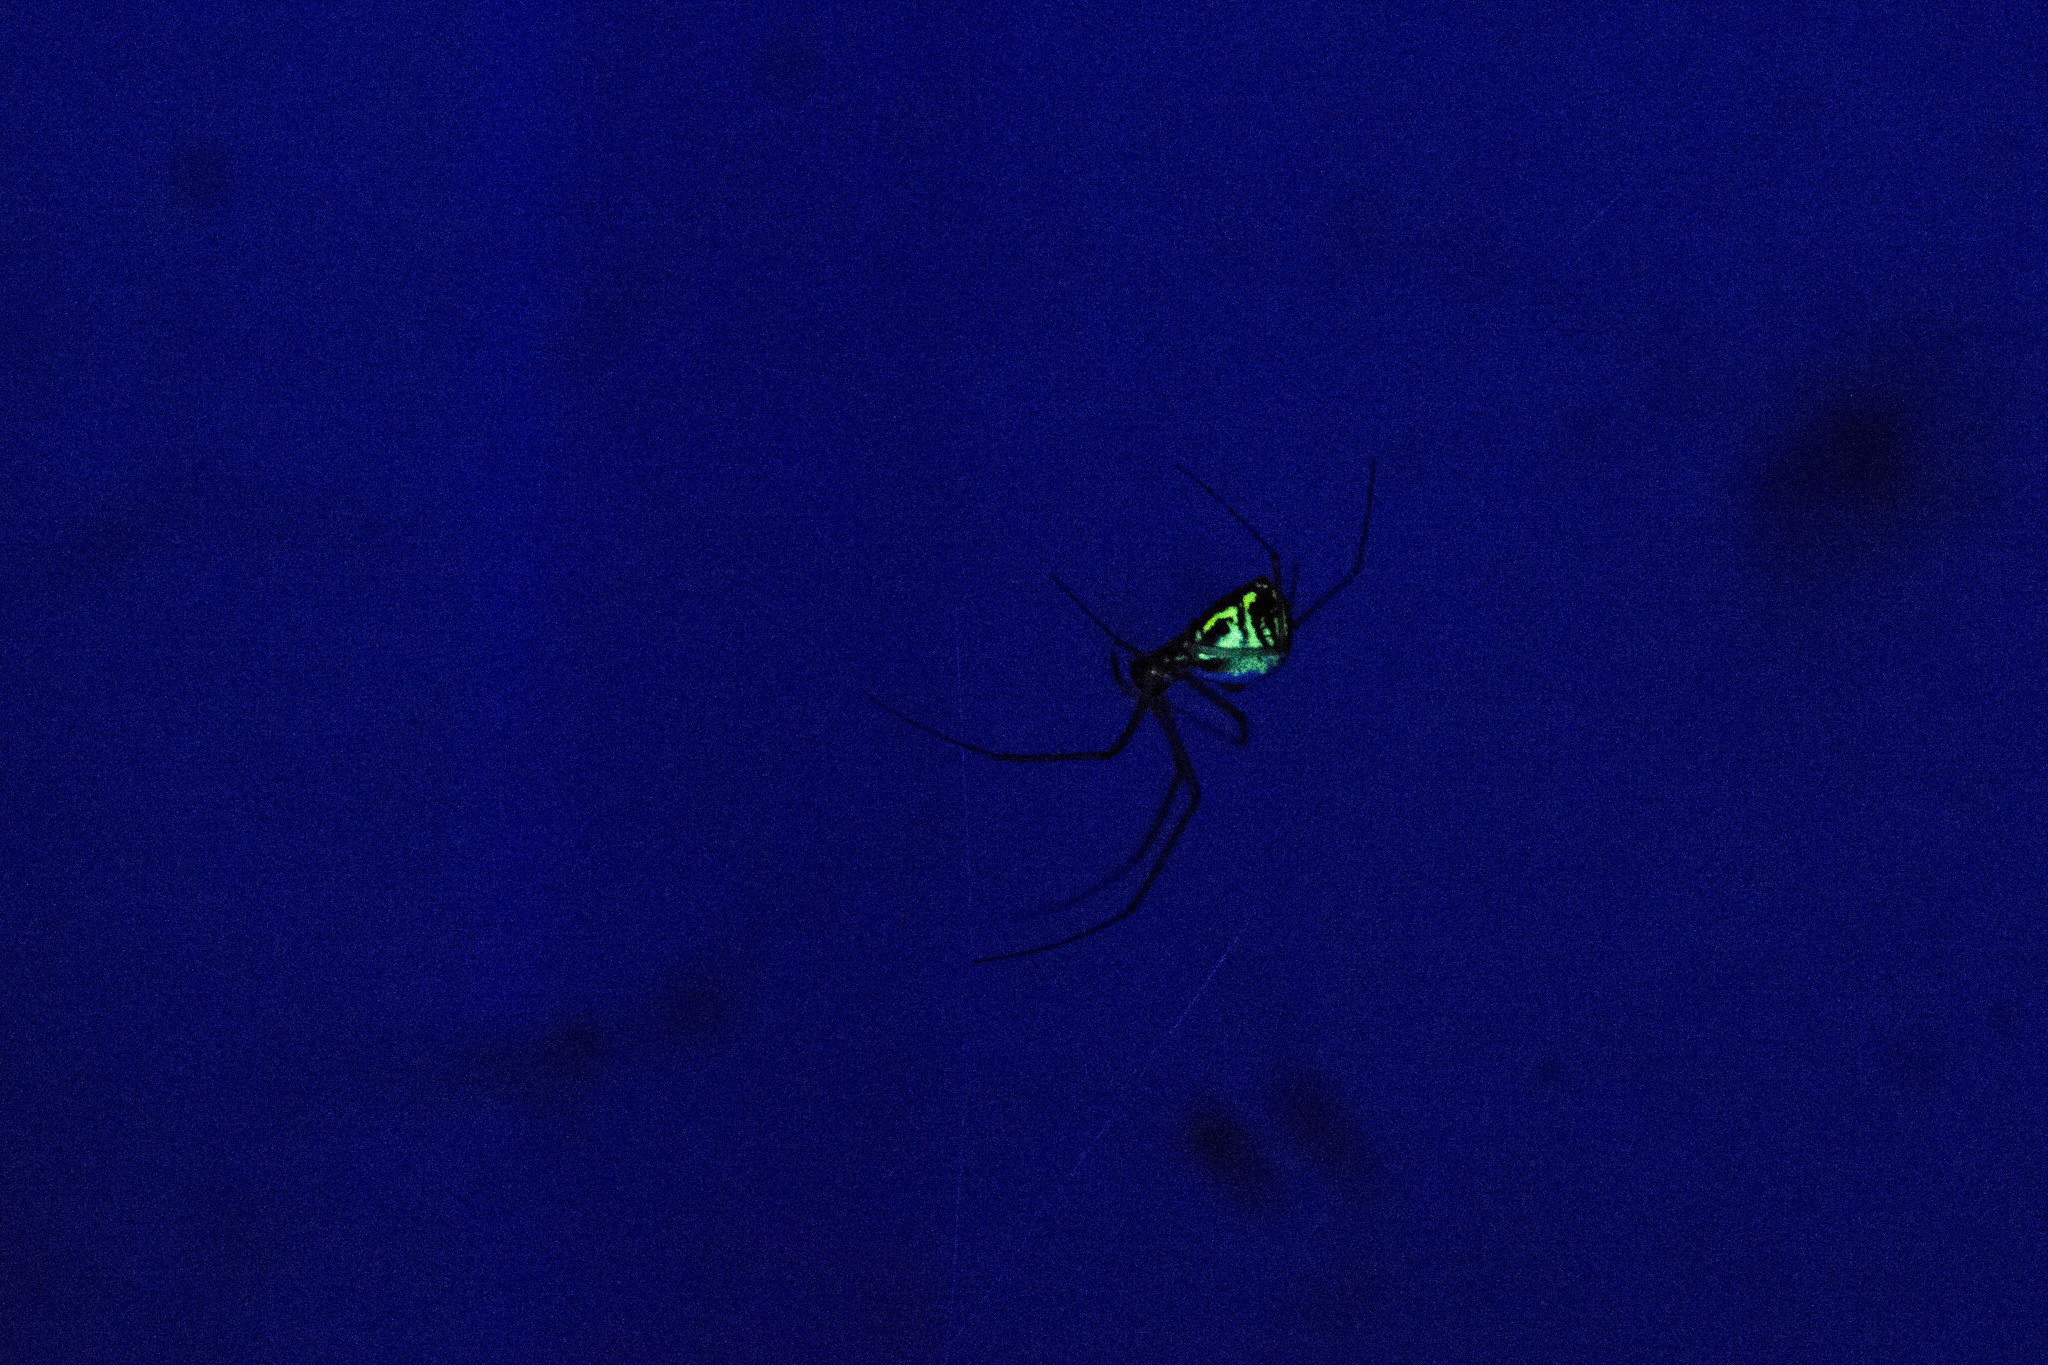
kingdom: Animalia
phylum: Arthropoda
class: Arachnida
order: Araneae
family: Linyphiidae
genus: Neriene
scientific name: Neriene radiata
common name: Filmy dome spider
